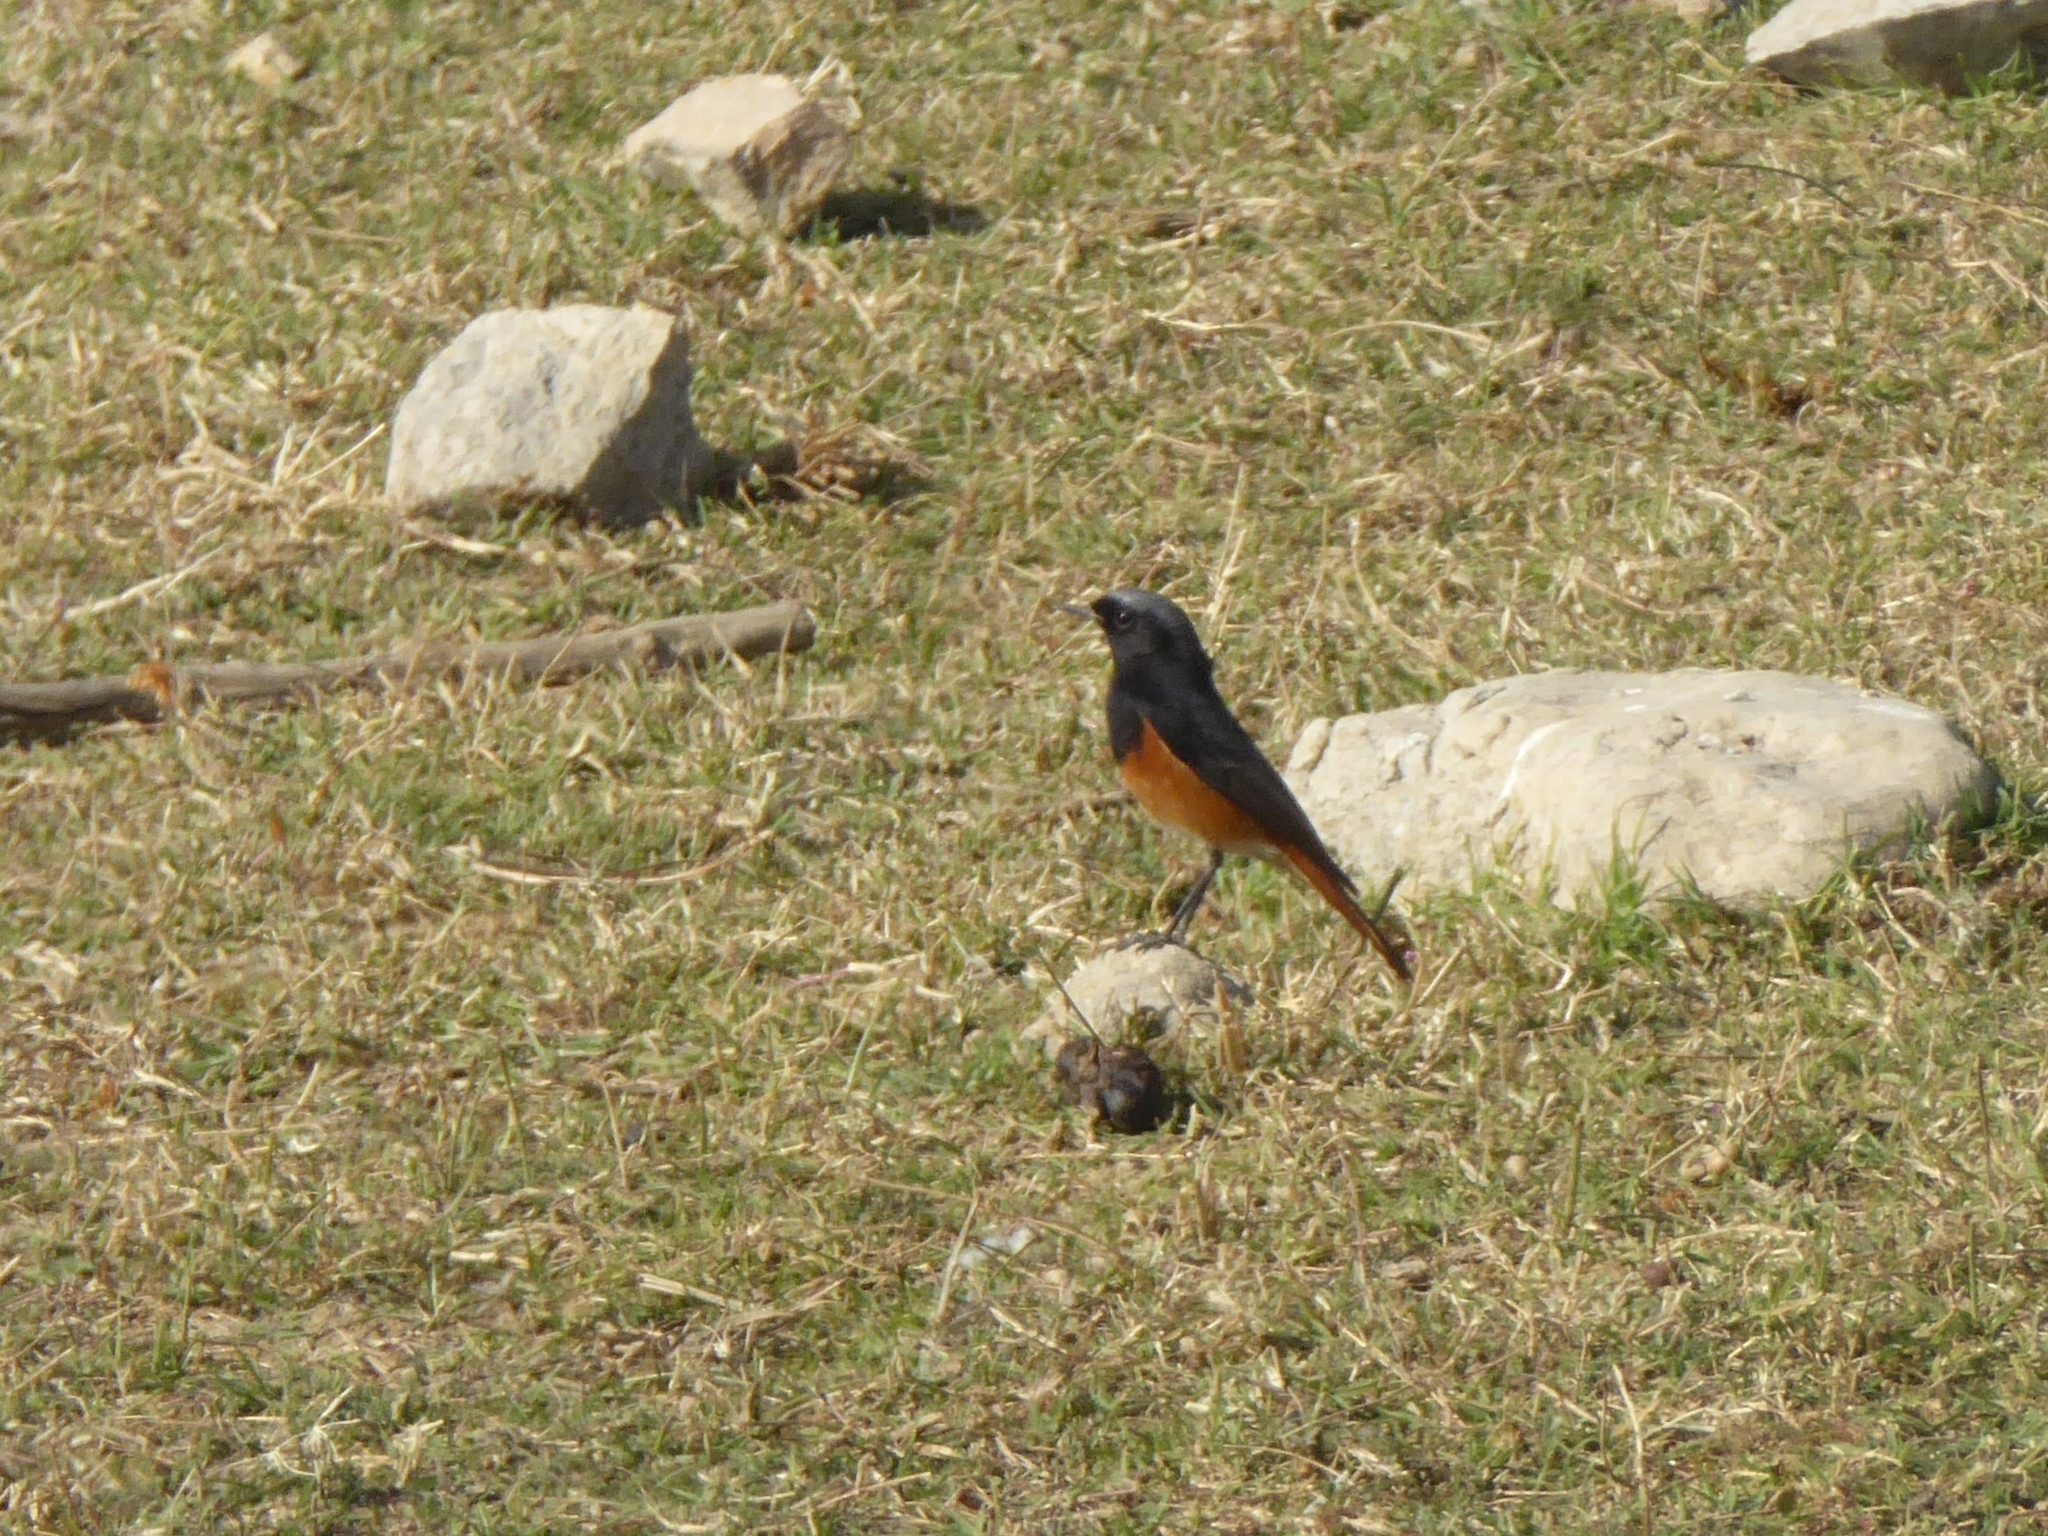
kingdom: Animalia
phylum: Chordata
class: Aves
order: Passeriformes
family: Muscicapidae
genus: Phoenicurus
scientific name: Phoenicurus ochruros
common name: Black redstart
